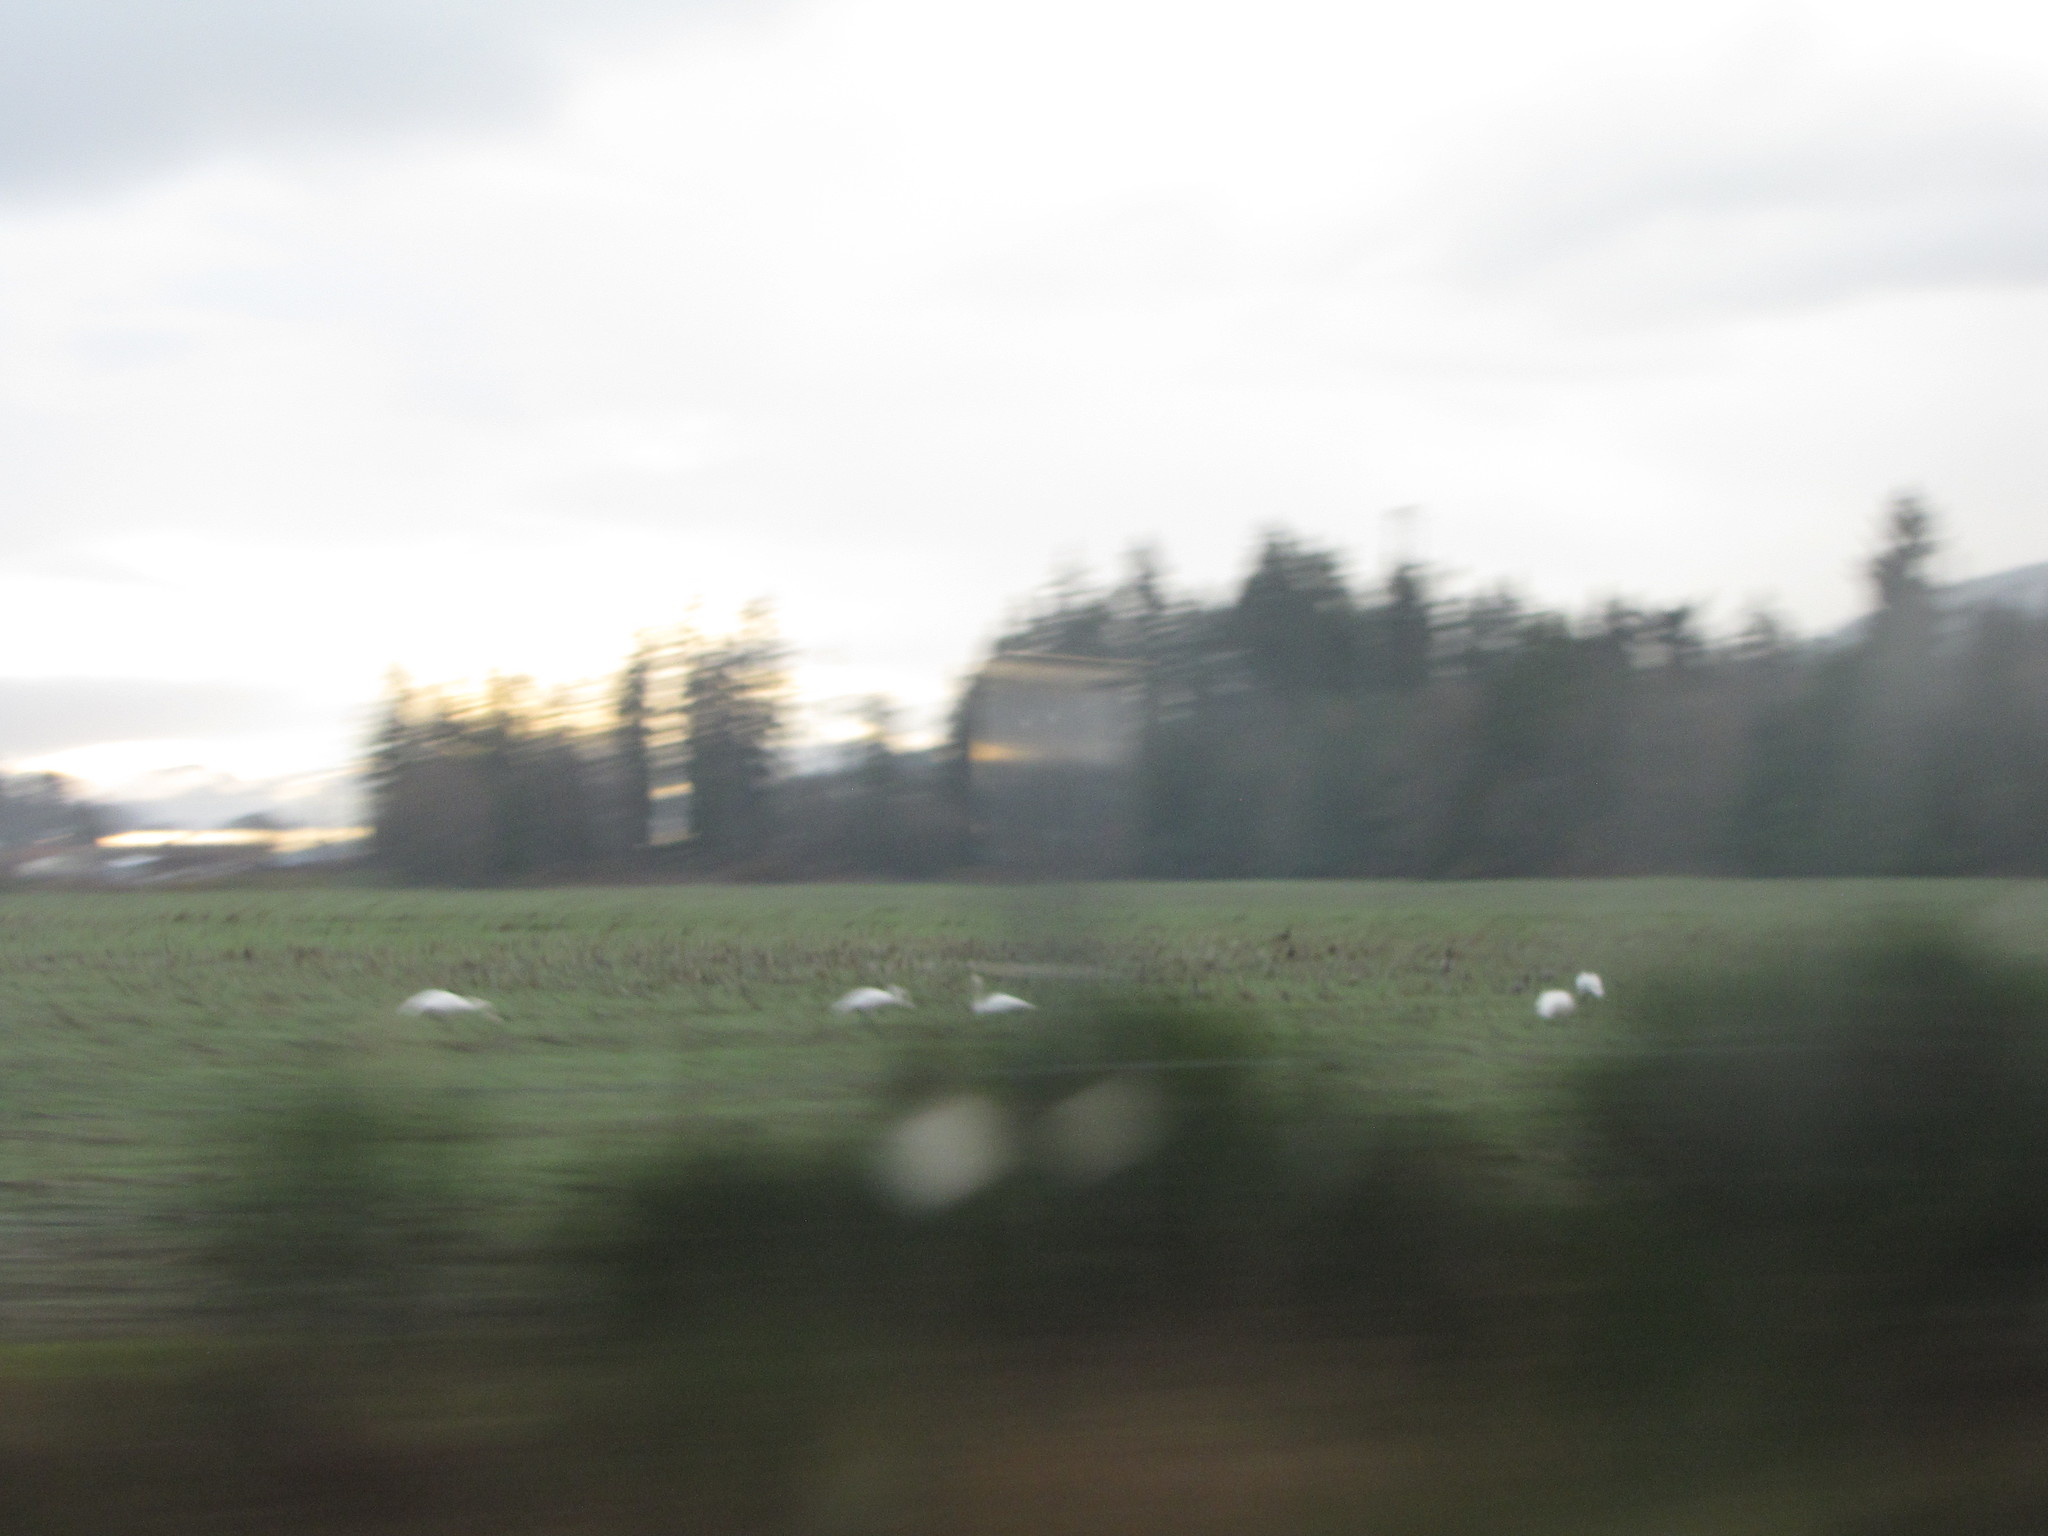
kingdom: Animalia
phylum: Chordata
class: Aves
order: Anseriformes
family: Anatidae
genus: Cygnus
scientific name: Cygnus buccinator
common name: Trumpeter swan
